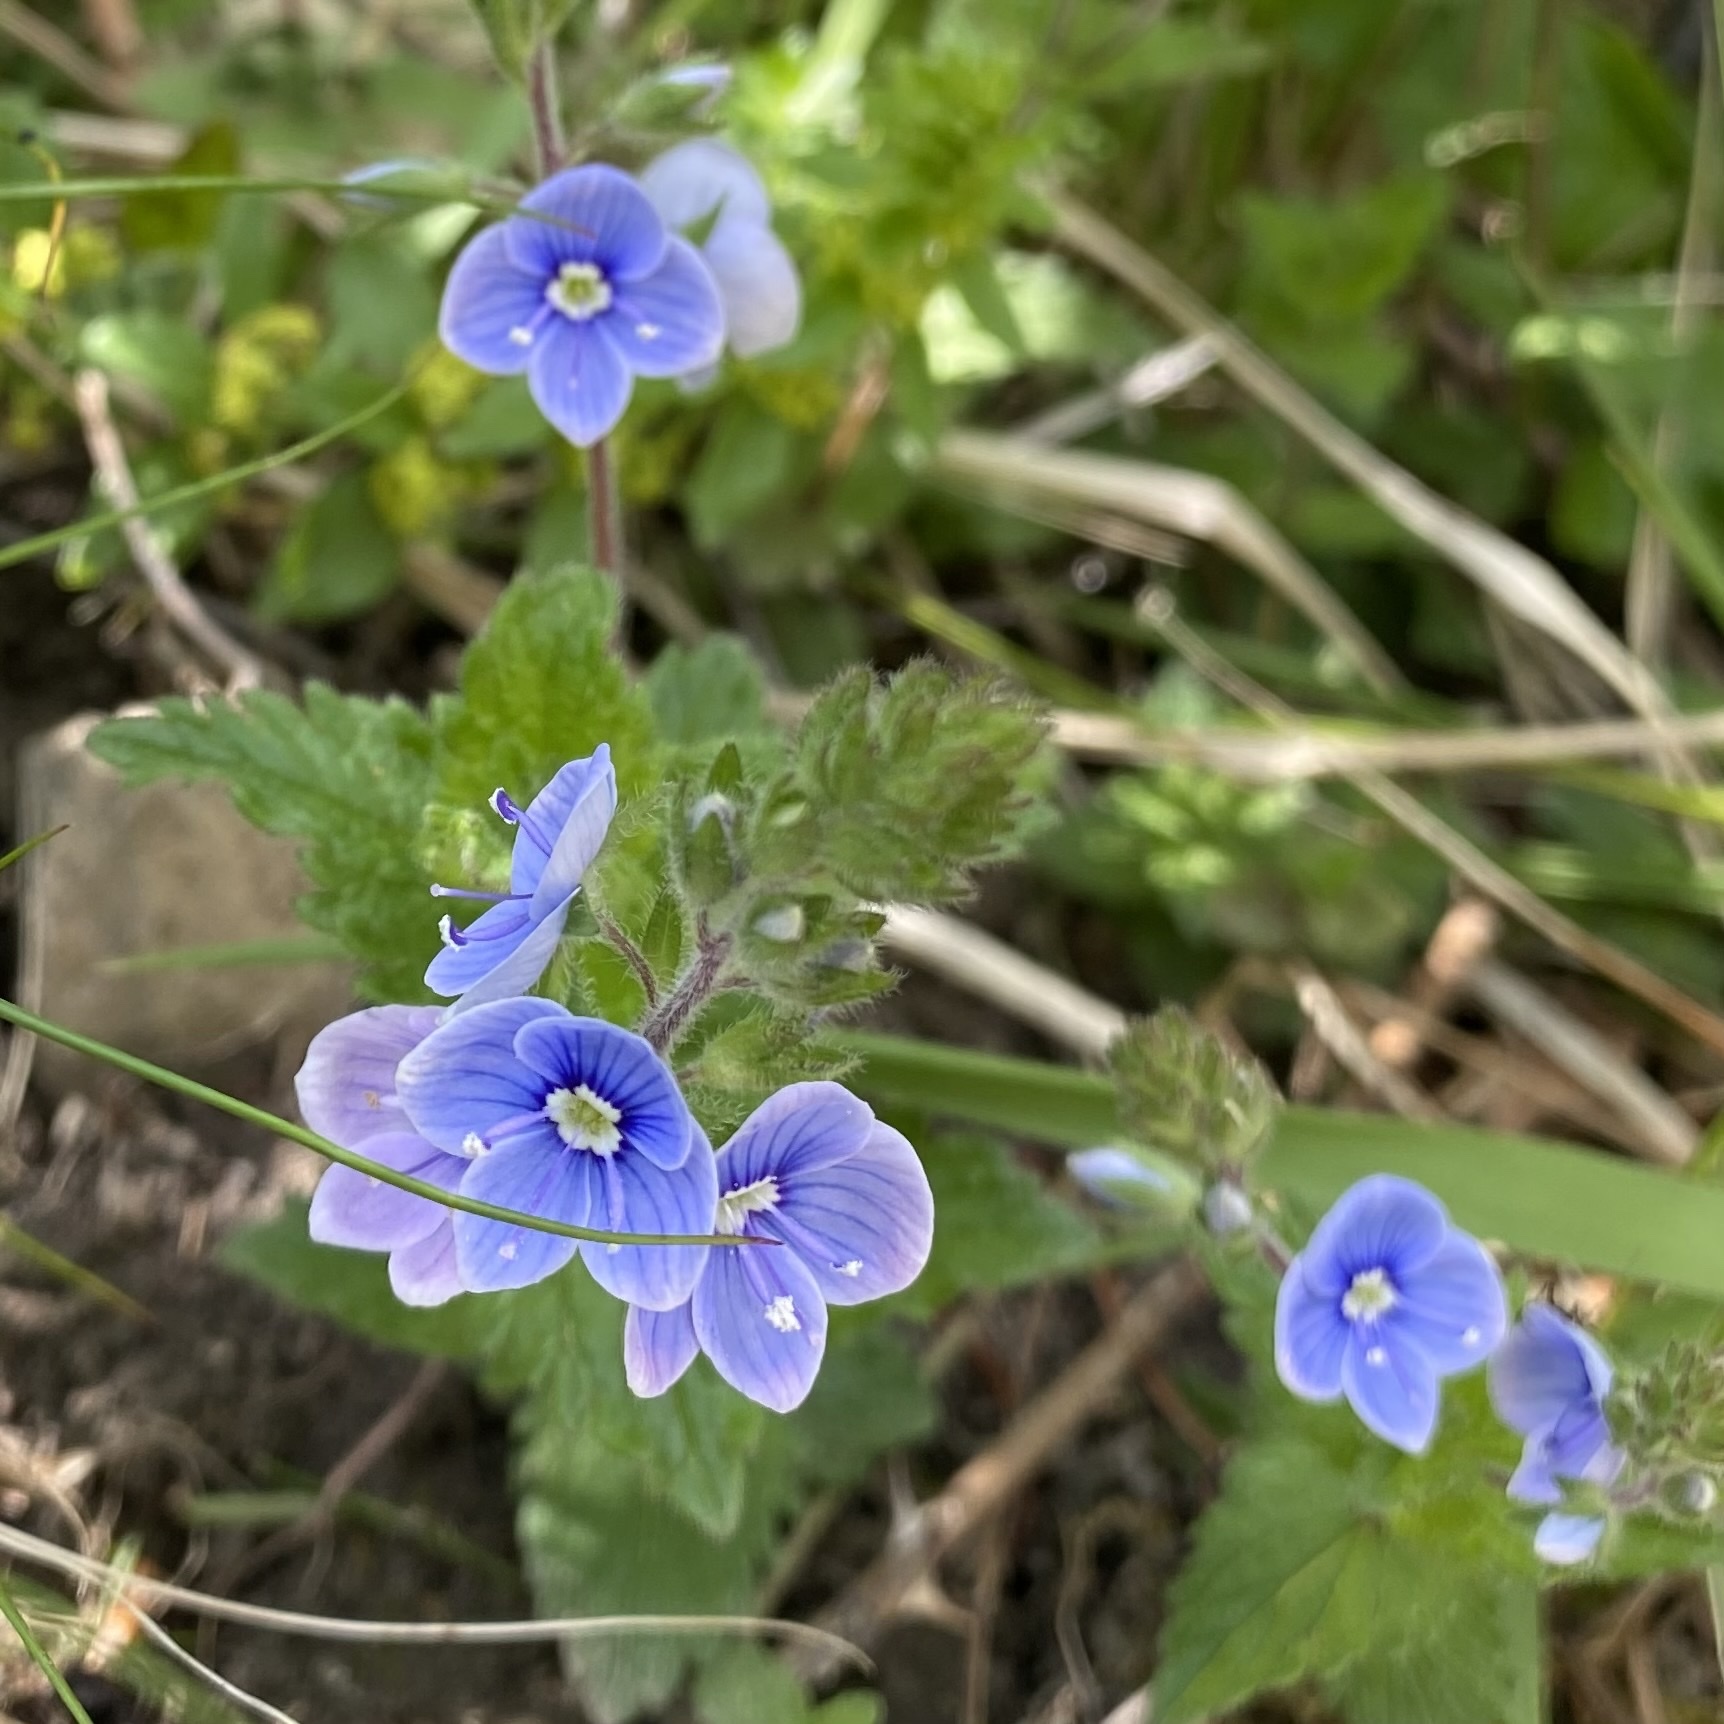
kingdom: Plantae
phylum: Tracheophyta
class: Magnoliopsida
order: Lamiales
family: Plantaginaceae
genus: Veronica
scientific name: Veronica chamaedrys
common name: Germander speedwell
